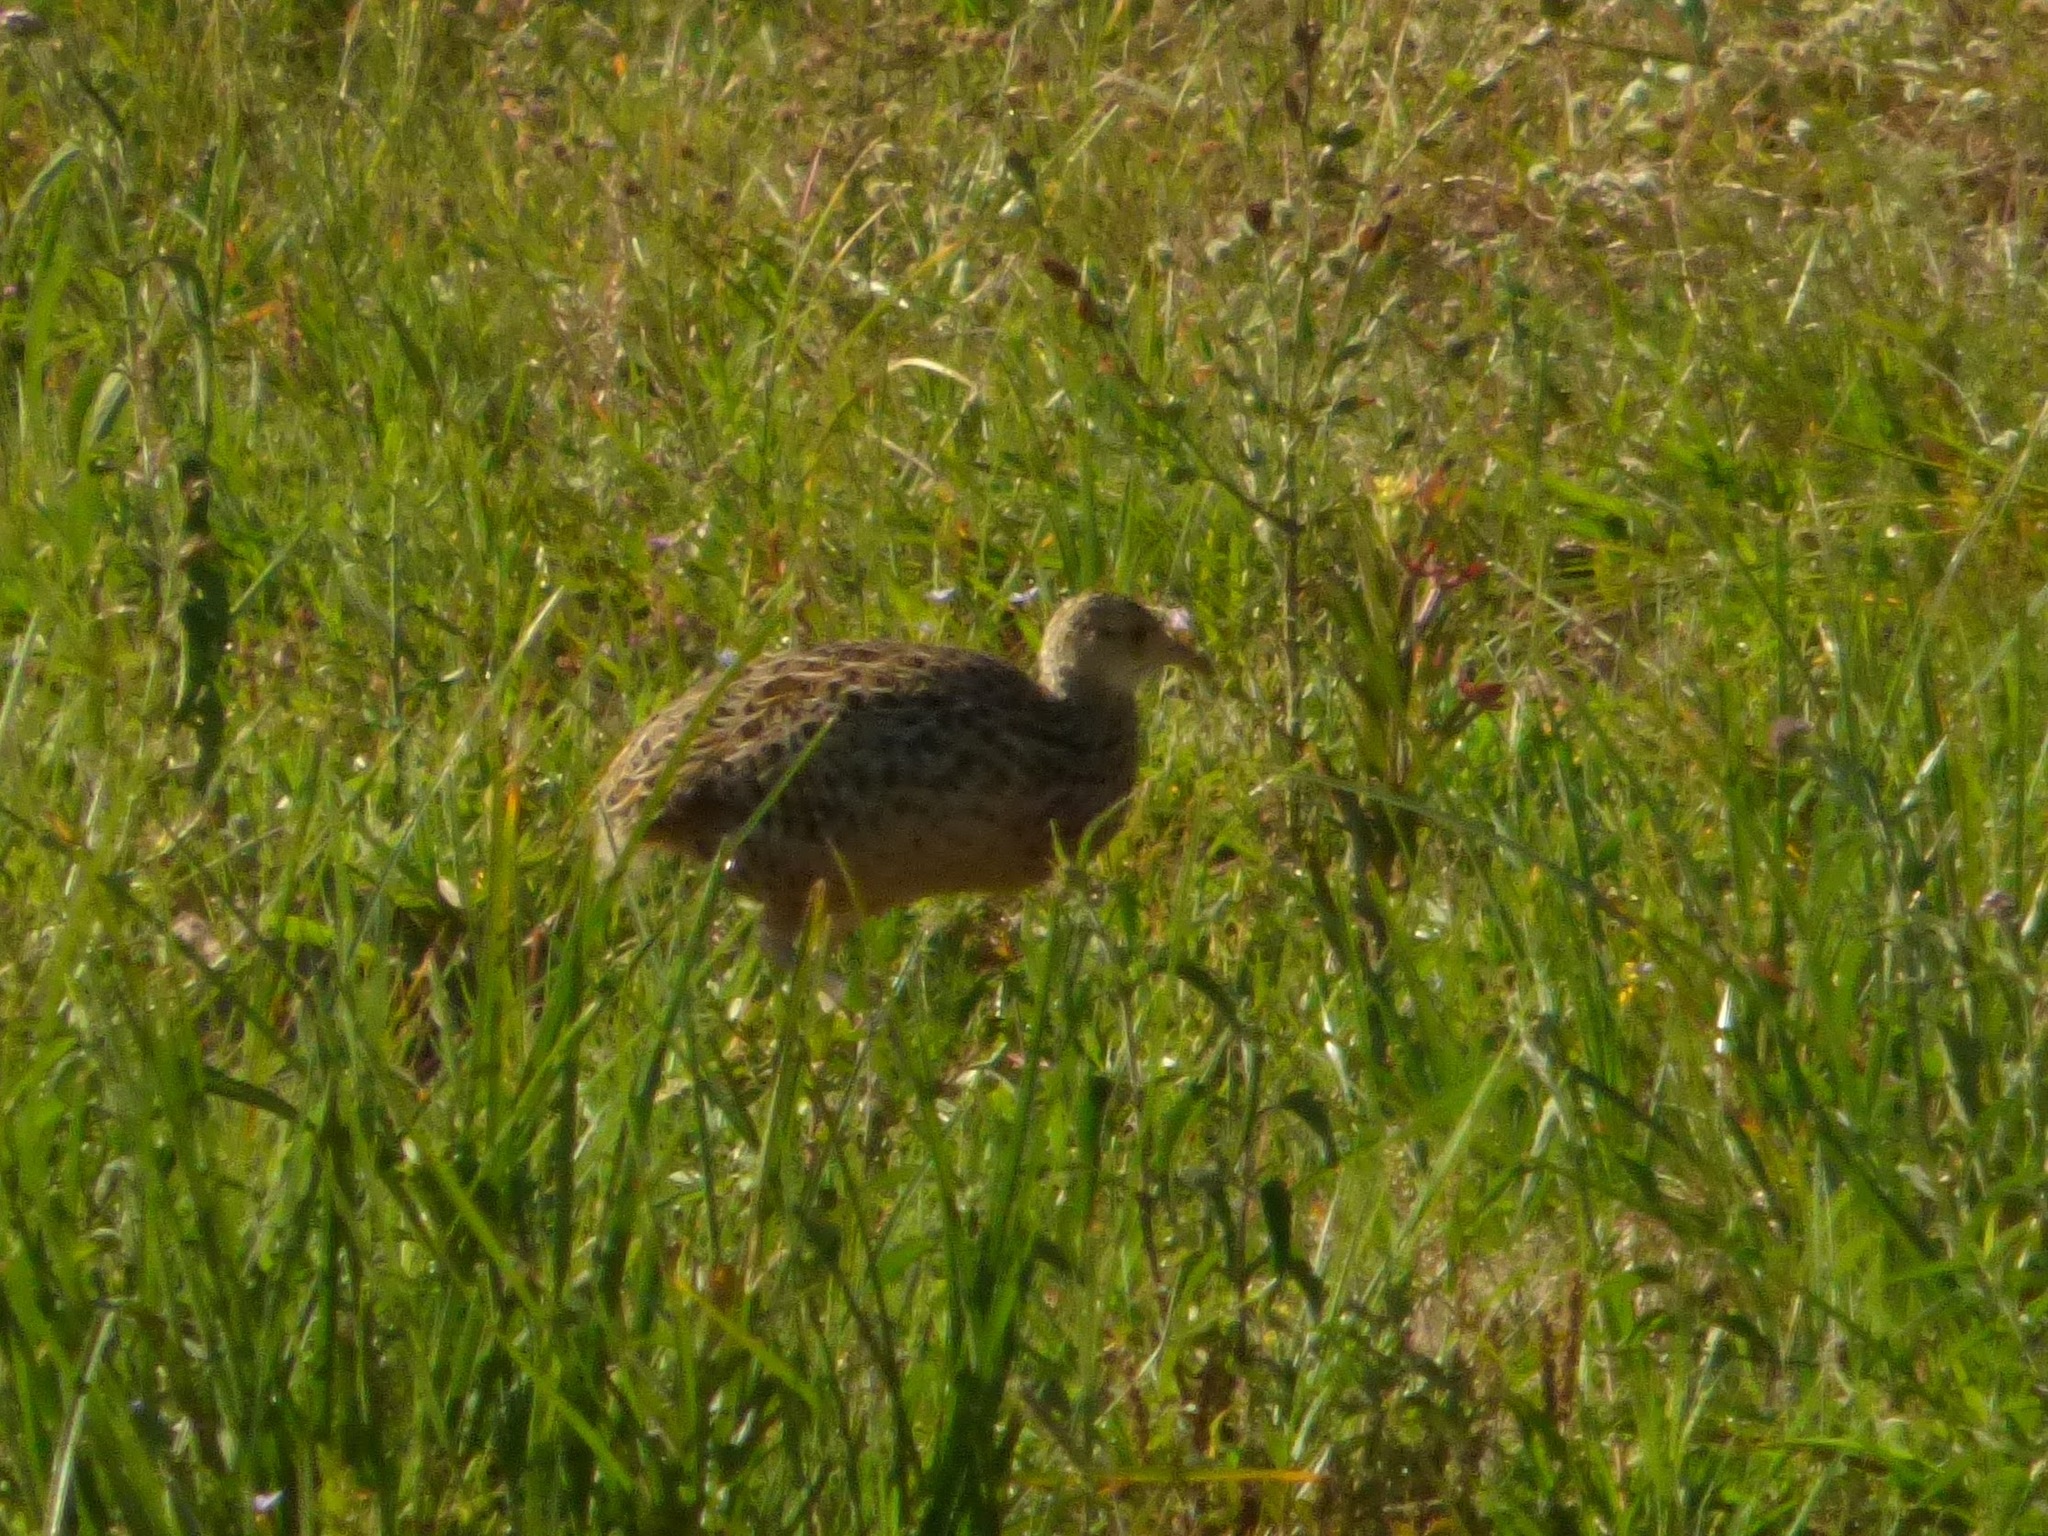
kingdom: Animalia
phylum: Chordata
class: Aves
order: Tinamiformes
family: Tinamidae
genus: Nothura
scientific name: Nothura maculosa
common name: Spotted nothura
